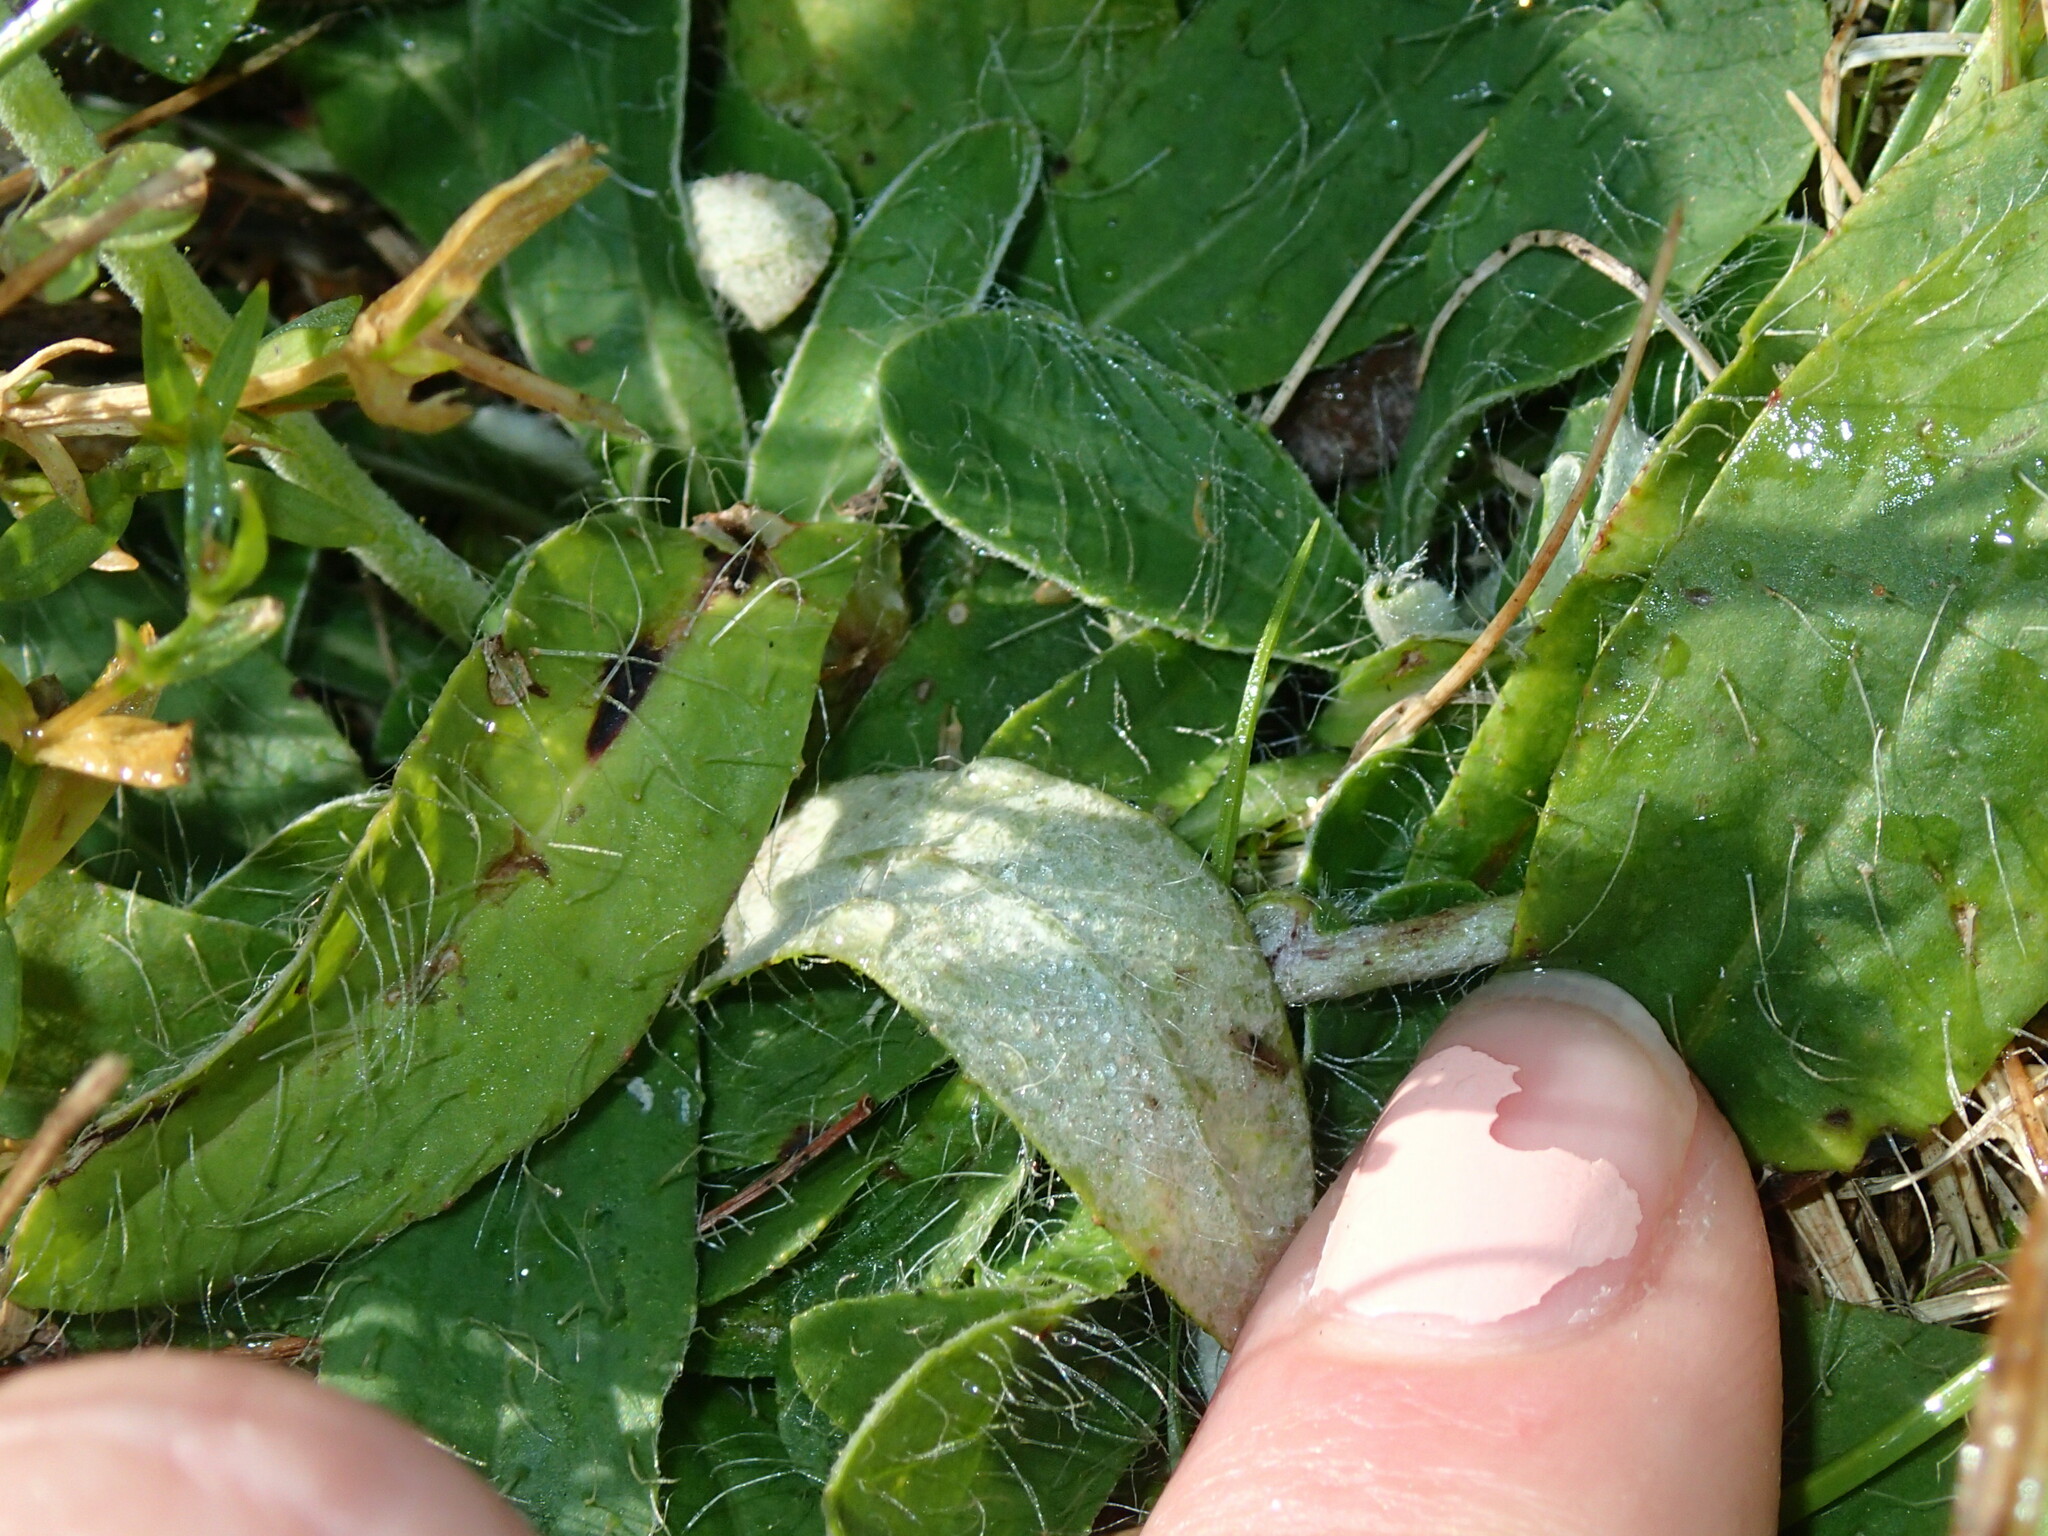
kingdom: Plantae
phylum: Tracheophyta
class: Magnoliopsida
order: Asterales
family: Asteraceae
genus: Pilosella
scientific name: Pilosella officinarum
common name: Mouse-ear hawkweed
